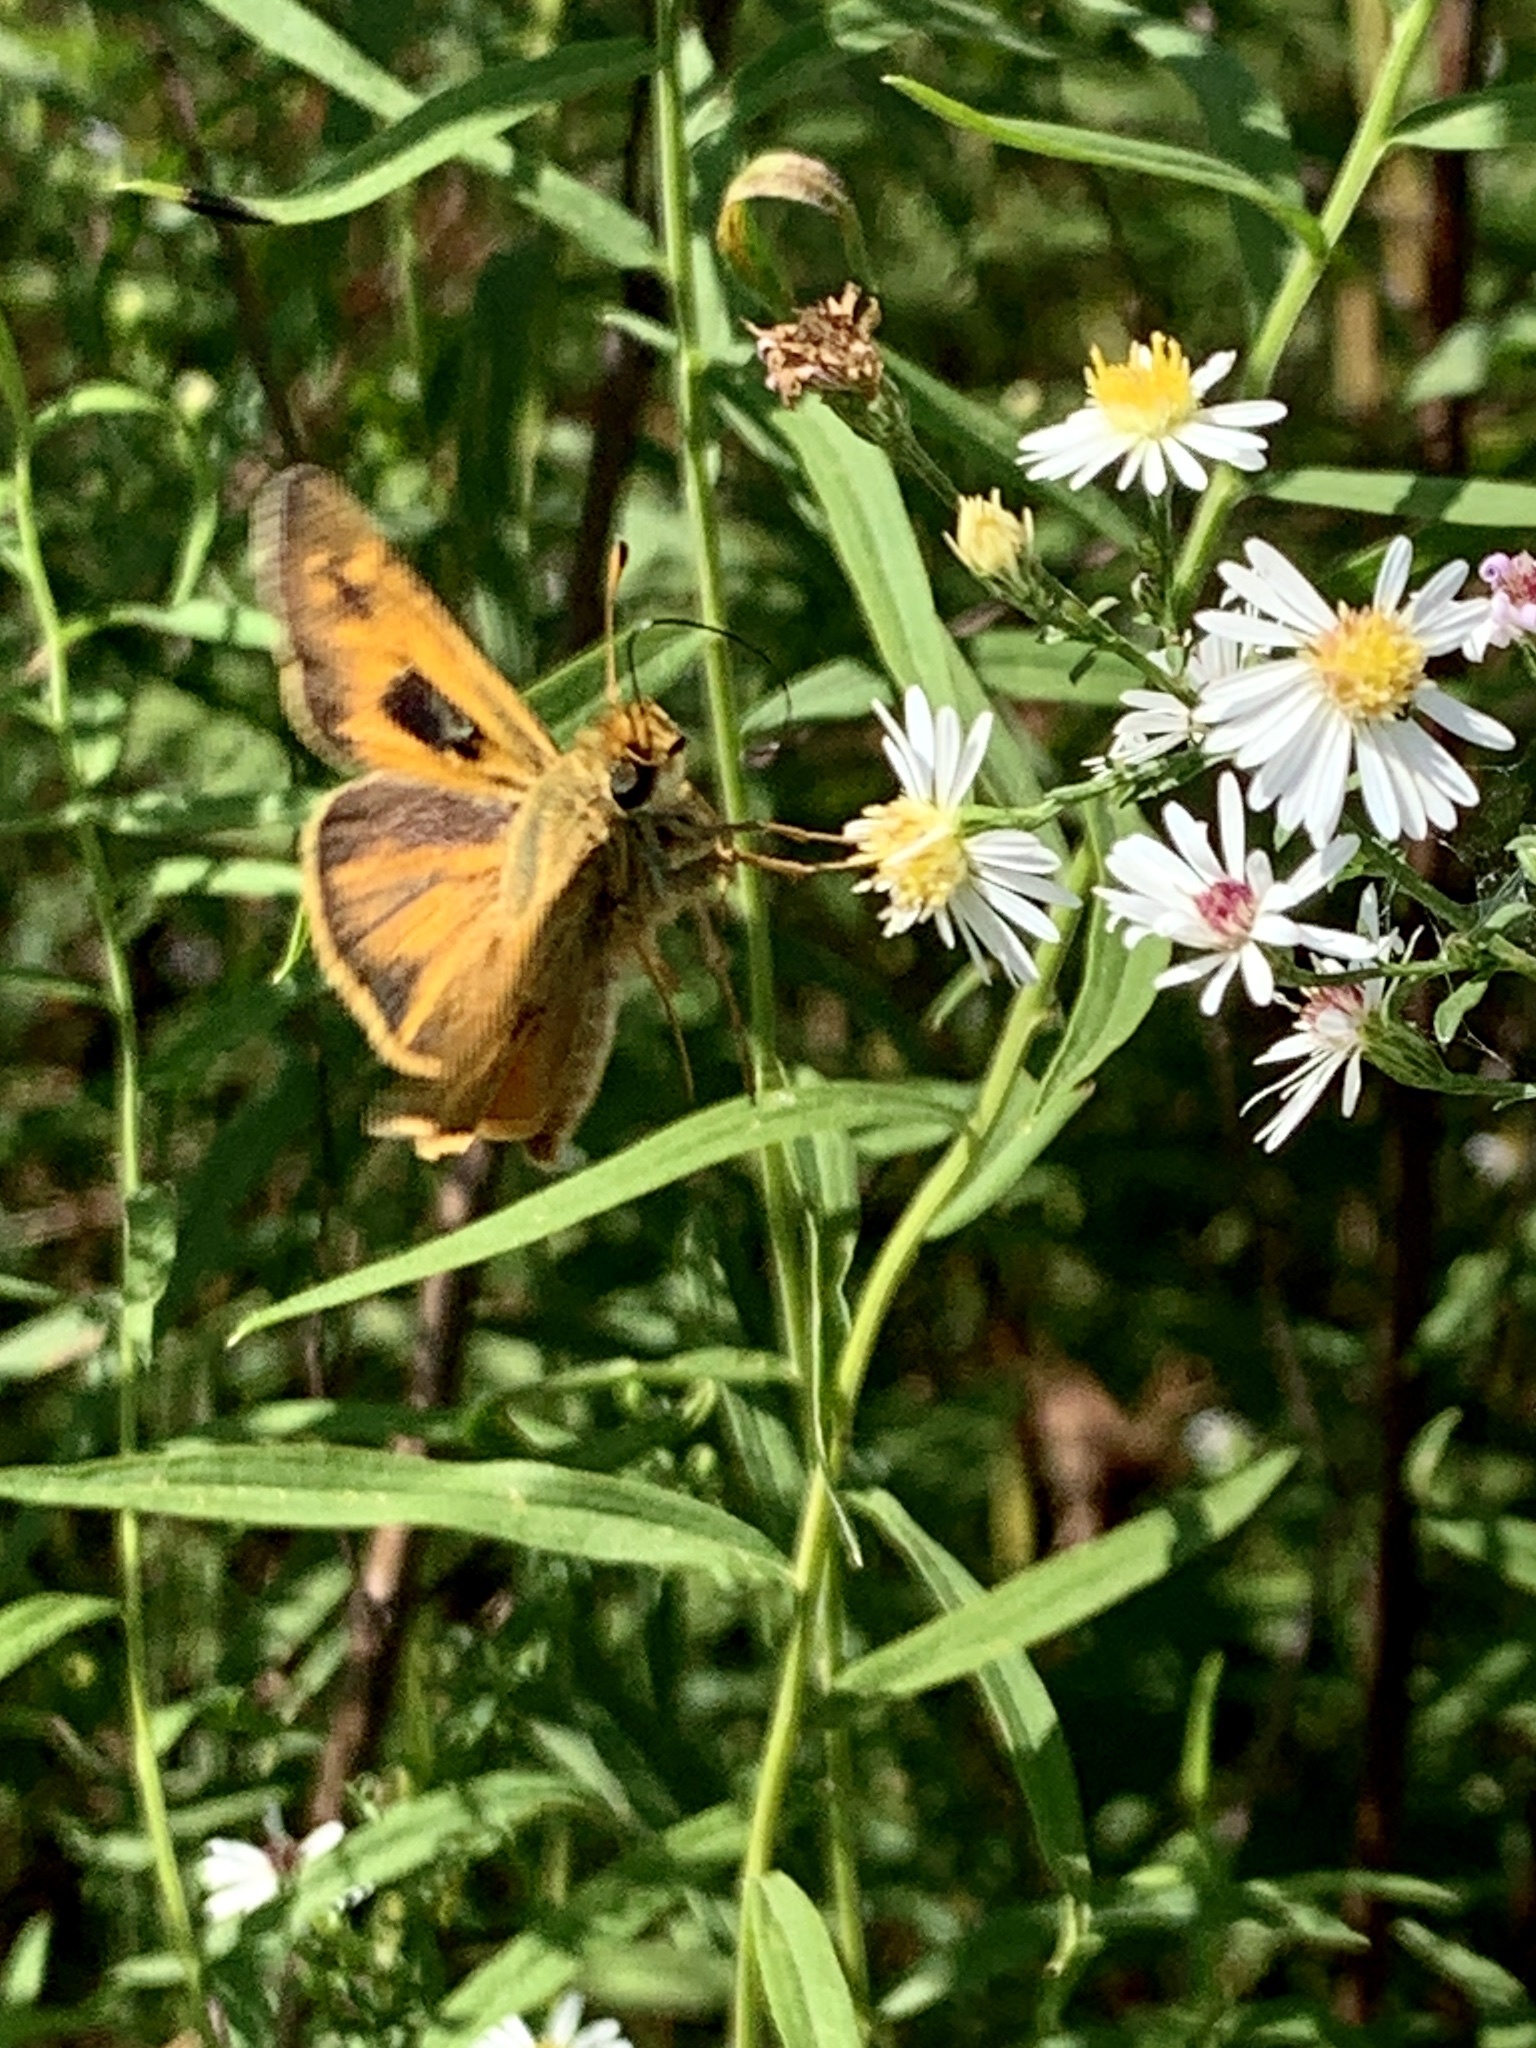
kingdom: Animalia
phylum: Arthropoda
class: Insecta
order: Lepidoptera
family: Hesperiidae
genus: Atalopedes
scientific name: Atalopedes
